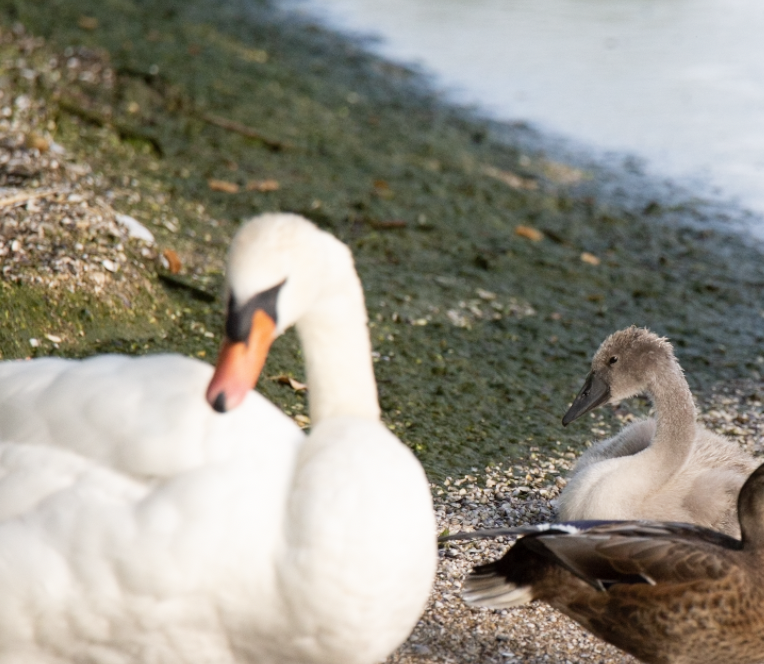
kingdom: Animalia
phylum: Chordata
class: Aves
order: Anseriformes
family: Anatidae
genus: Cygnus
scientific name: Cygnus olor
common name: Mute swan
